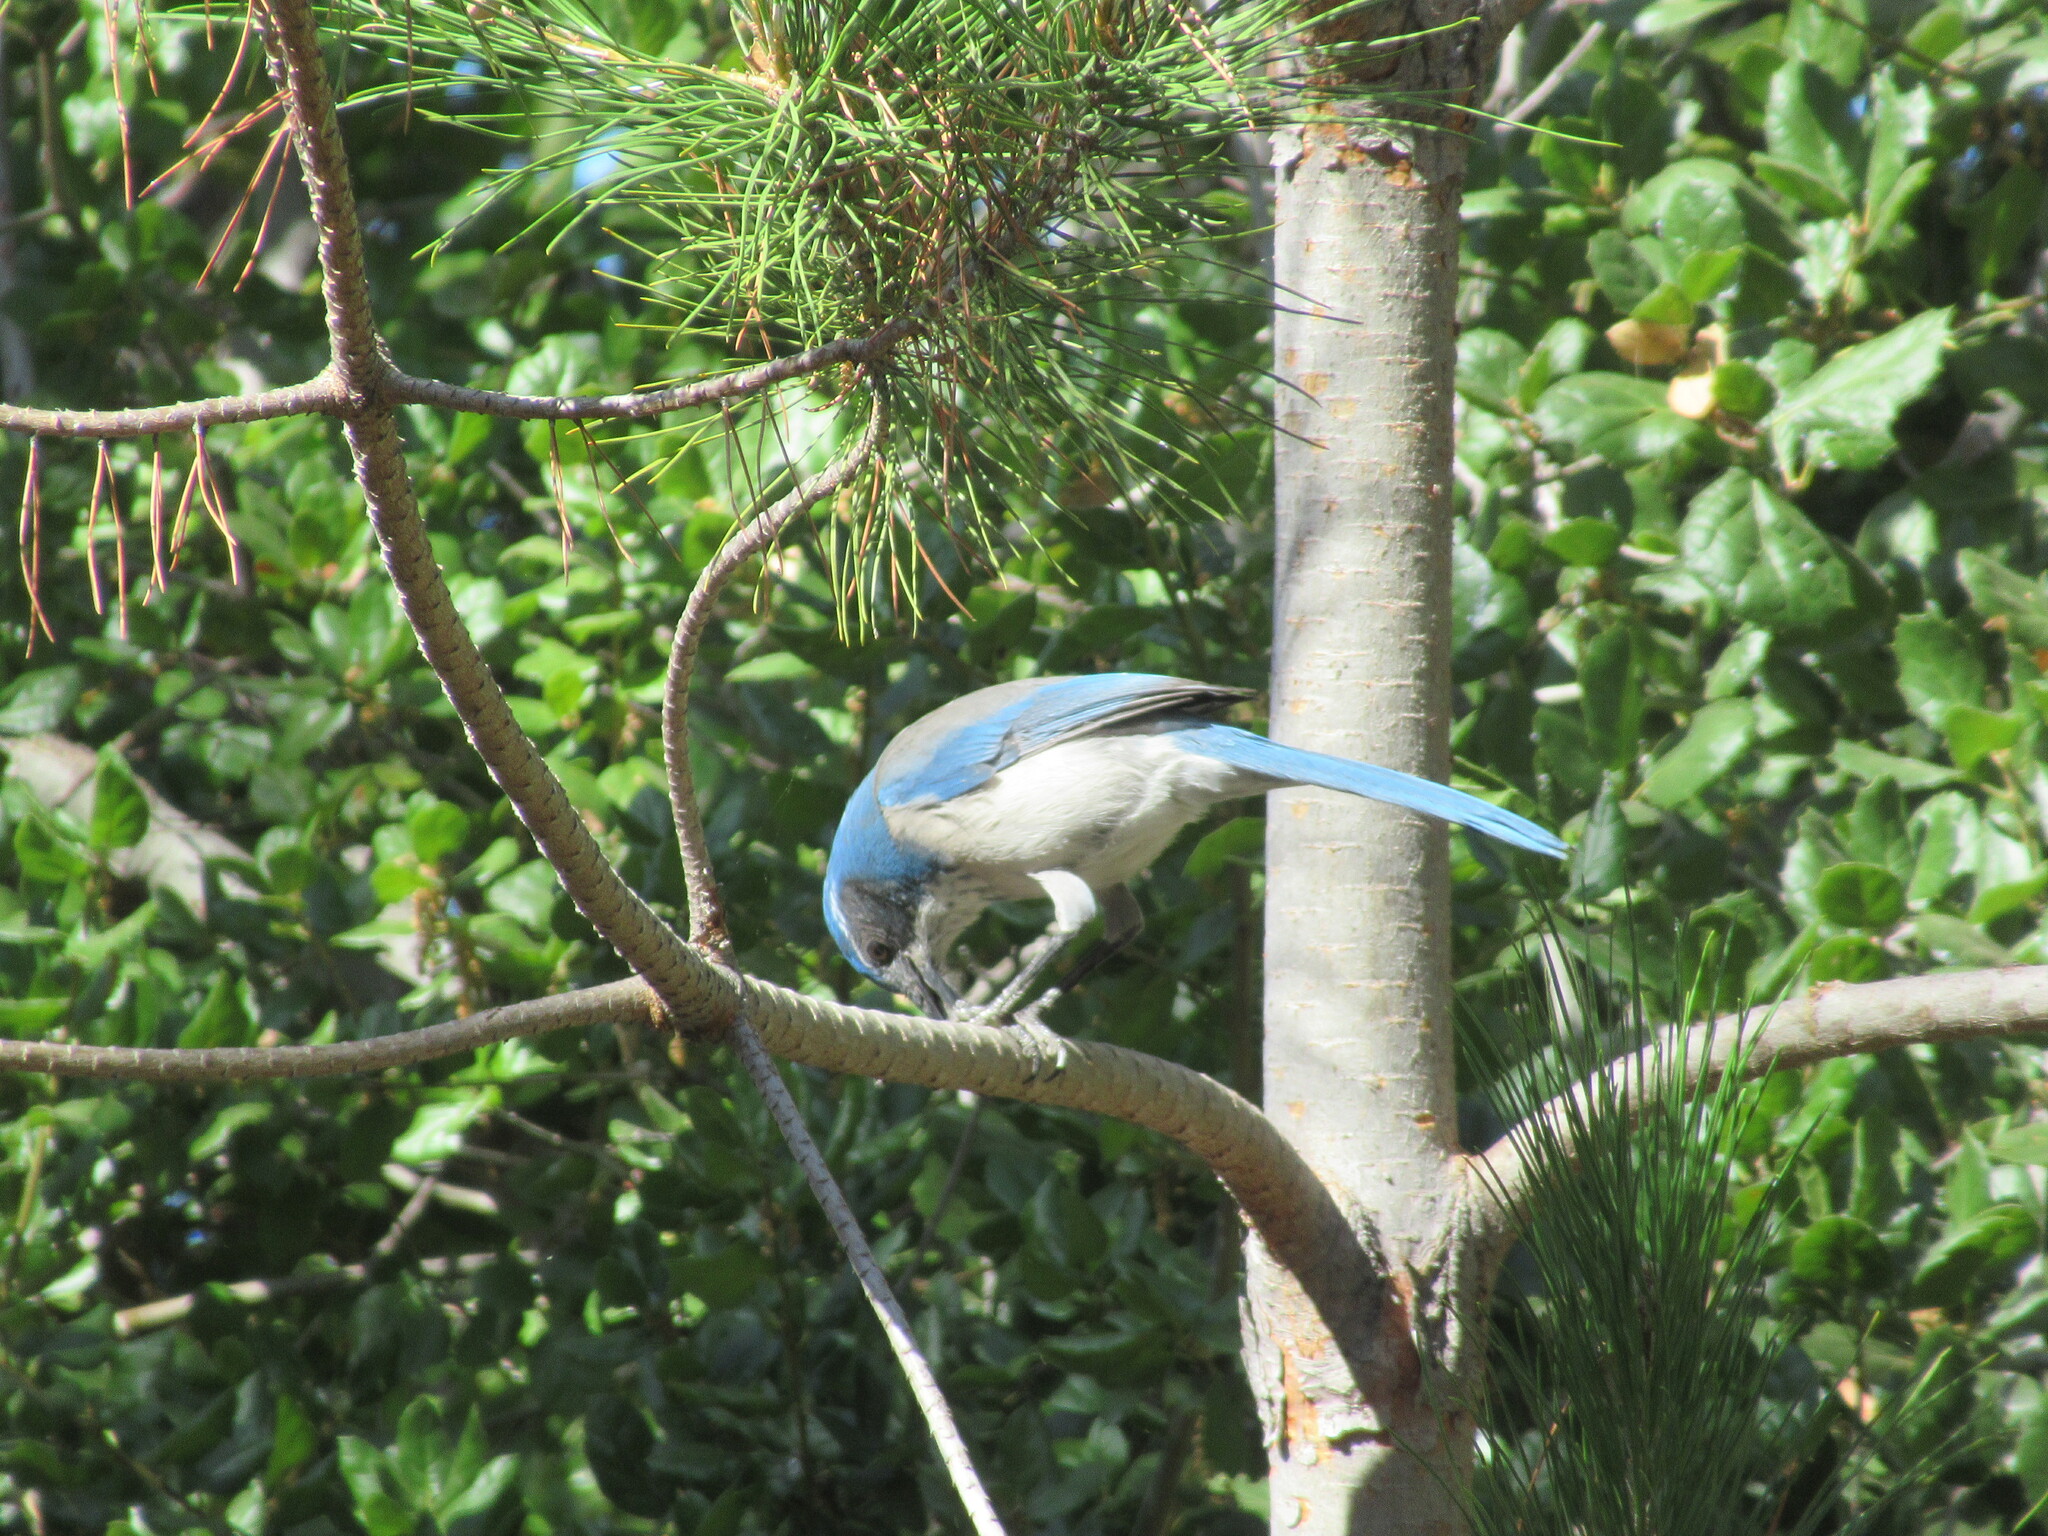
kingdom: Animalia
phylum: Chordata
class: Aves
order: Passeriformes
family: Corvidae
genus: Aphelocoma
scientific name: Aphelocoma californica
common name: California scrub-jay
